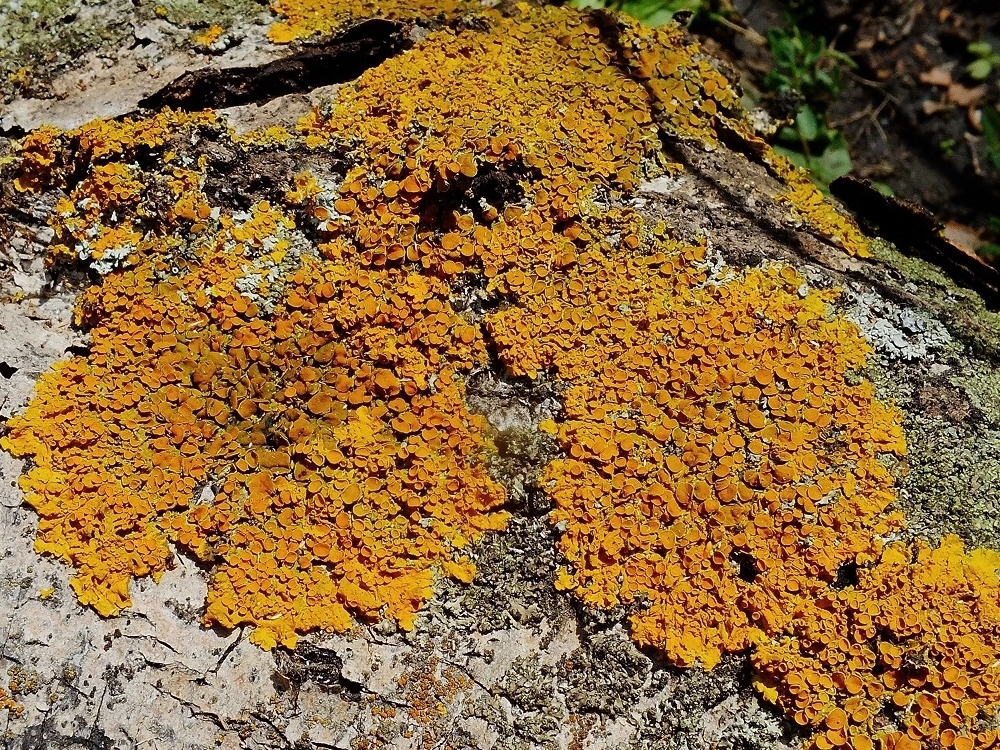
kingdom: Fungi
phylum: Ascomycota
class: Lecanoromycetes
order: Teloschistales
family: Teloschistaceae
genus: Xanthoria
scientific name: Xanthoria parietina
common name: Common orange lichen
